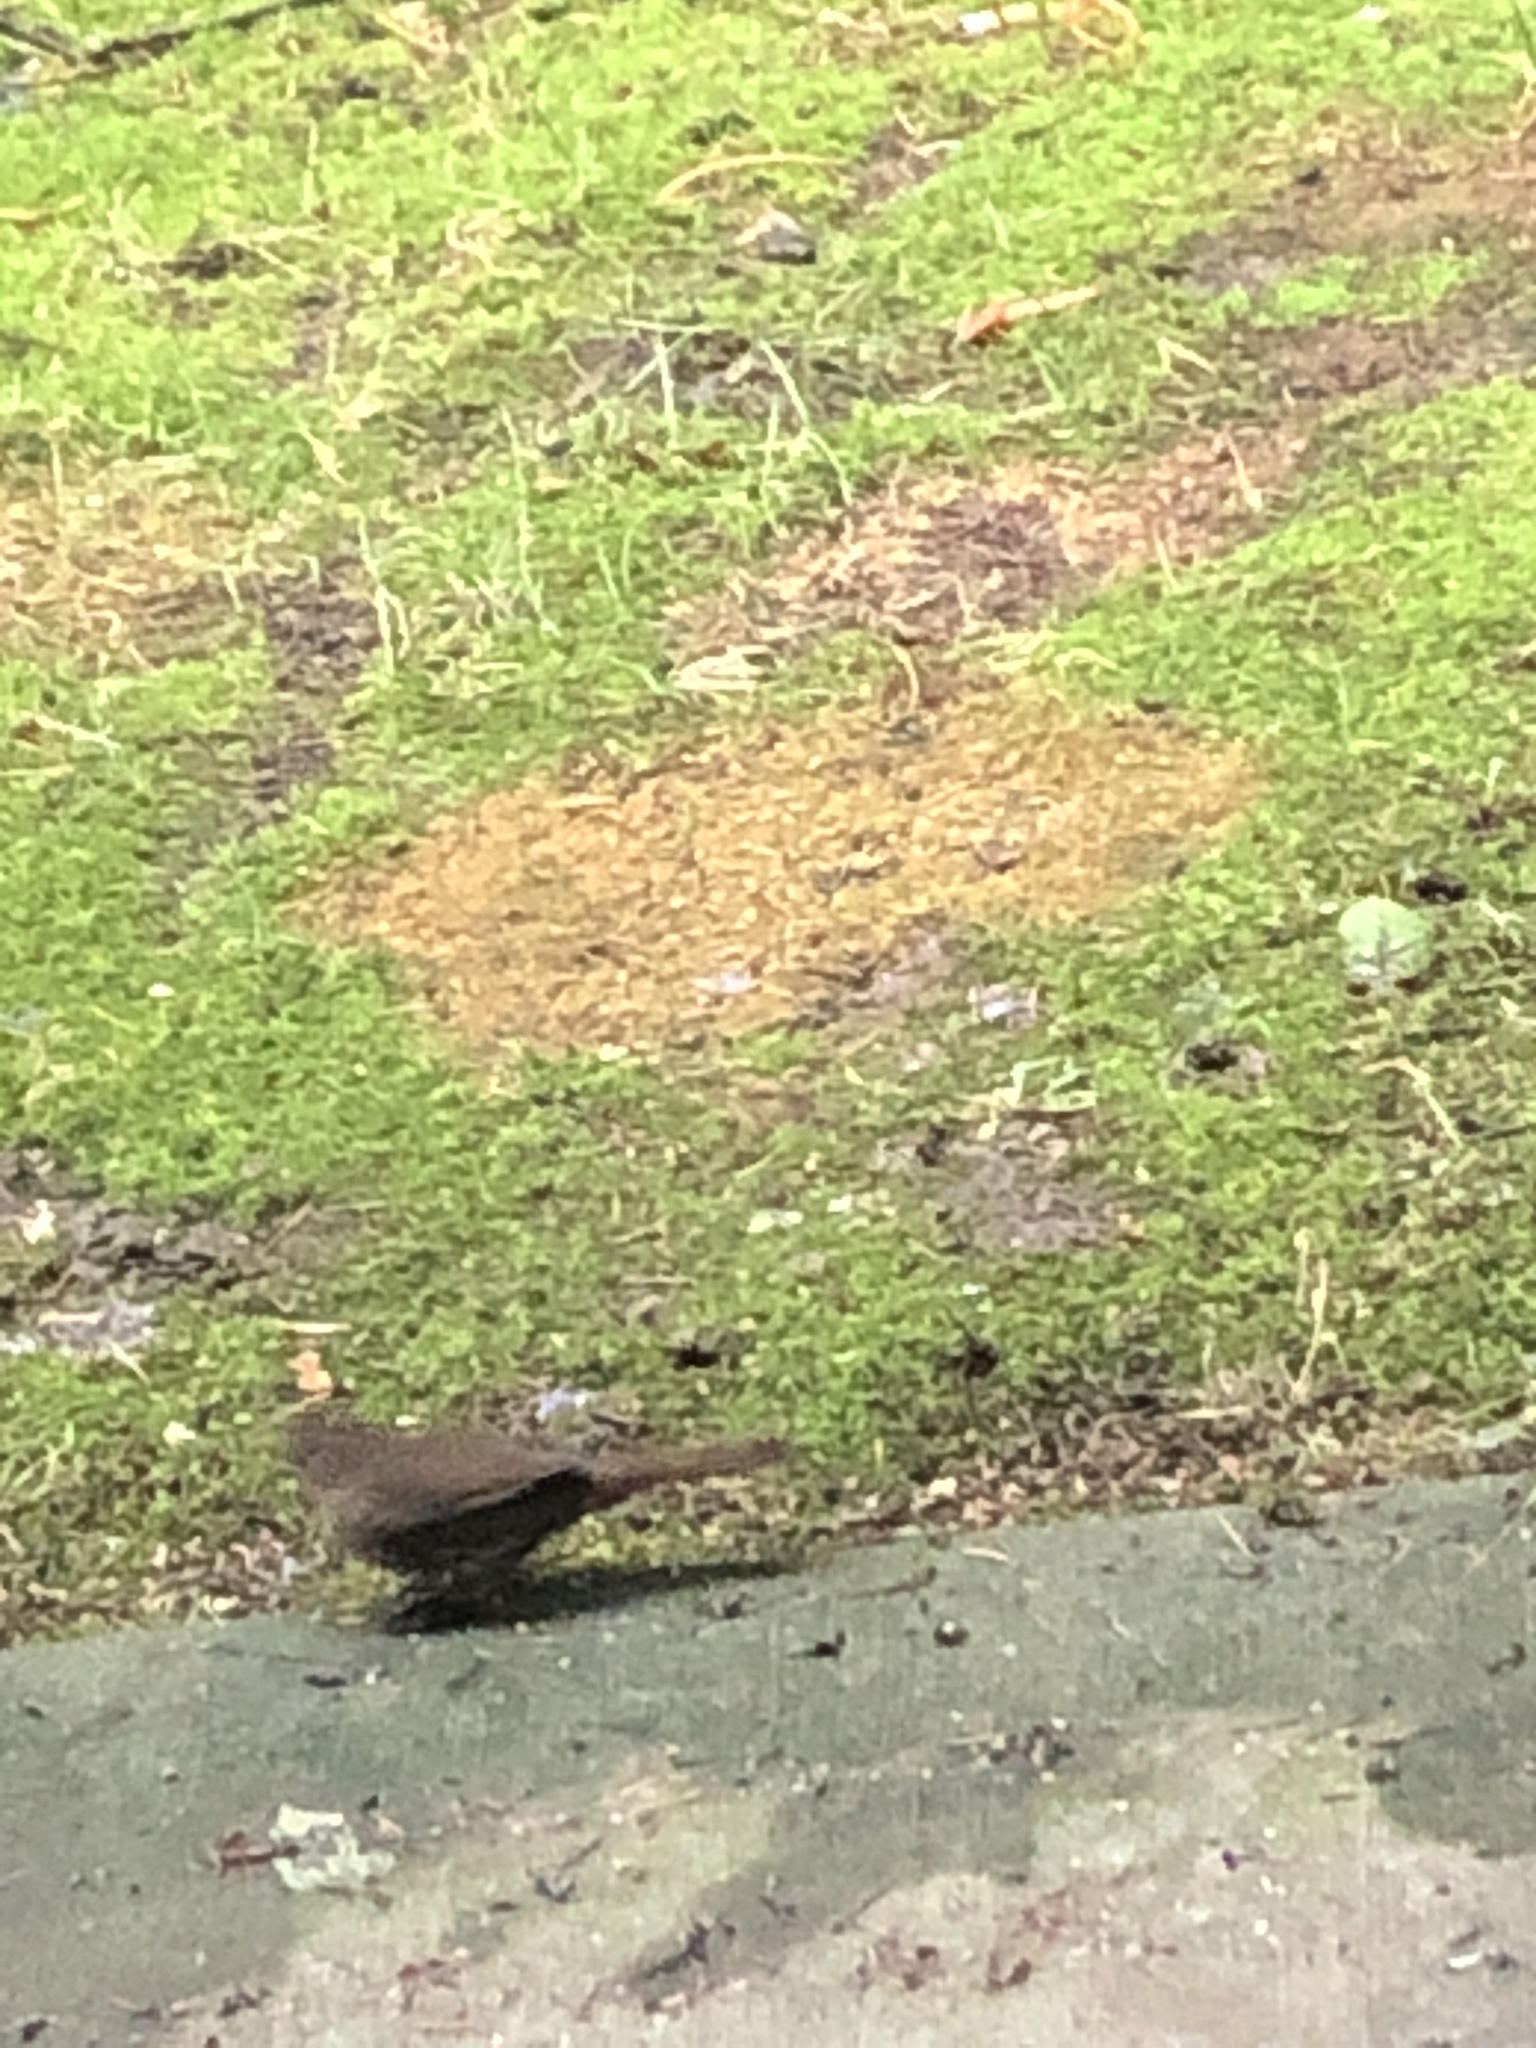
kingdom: Animalia
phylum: Chordata
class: Aves
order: Passeriformes
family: Passerellidae
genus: Passerella
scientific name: Passerella iliaca
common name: Fox sparrow
